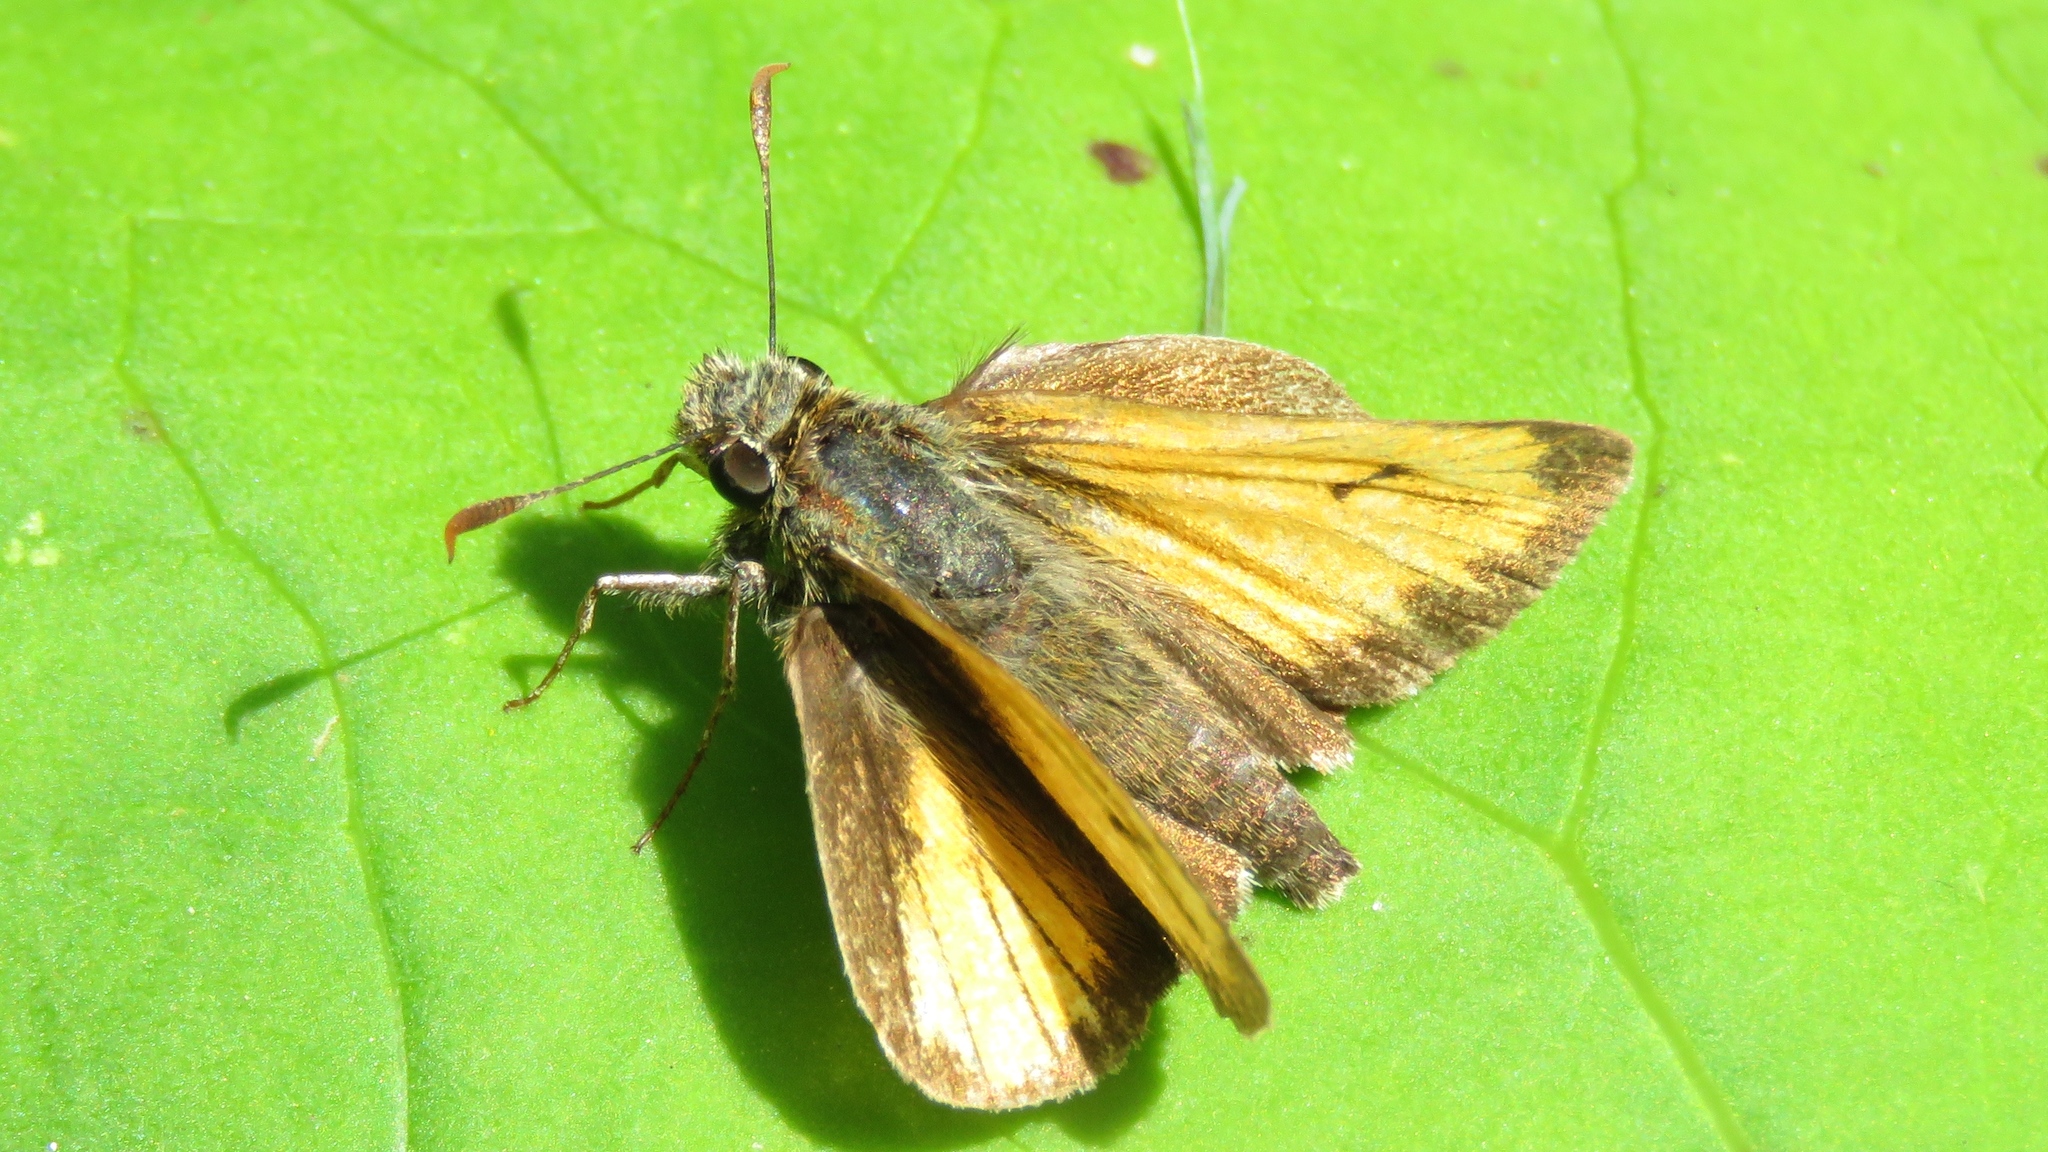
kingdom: Animalia
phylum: Arthropoda
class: Insecta
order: Lepidoptera
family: Hesperiidae
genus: Lon
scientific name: Lon hobomok
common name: Hobomok skipper
